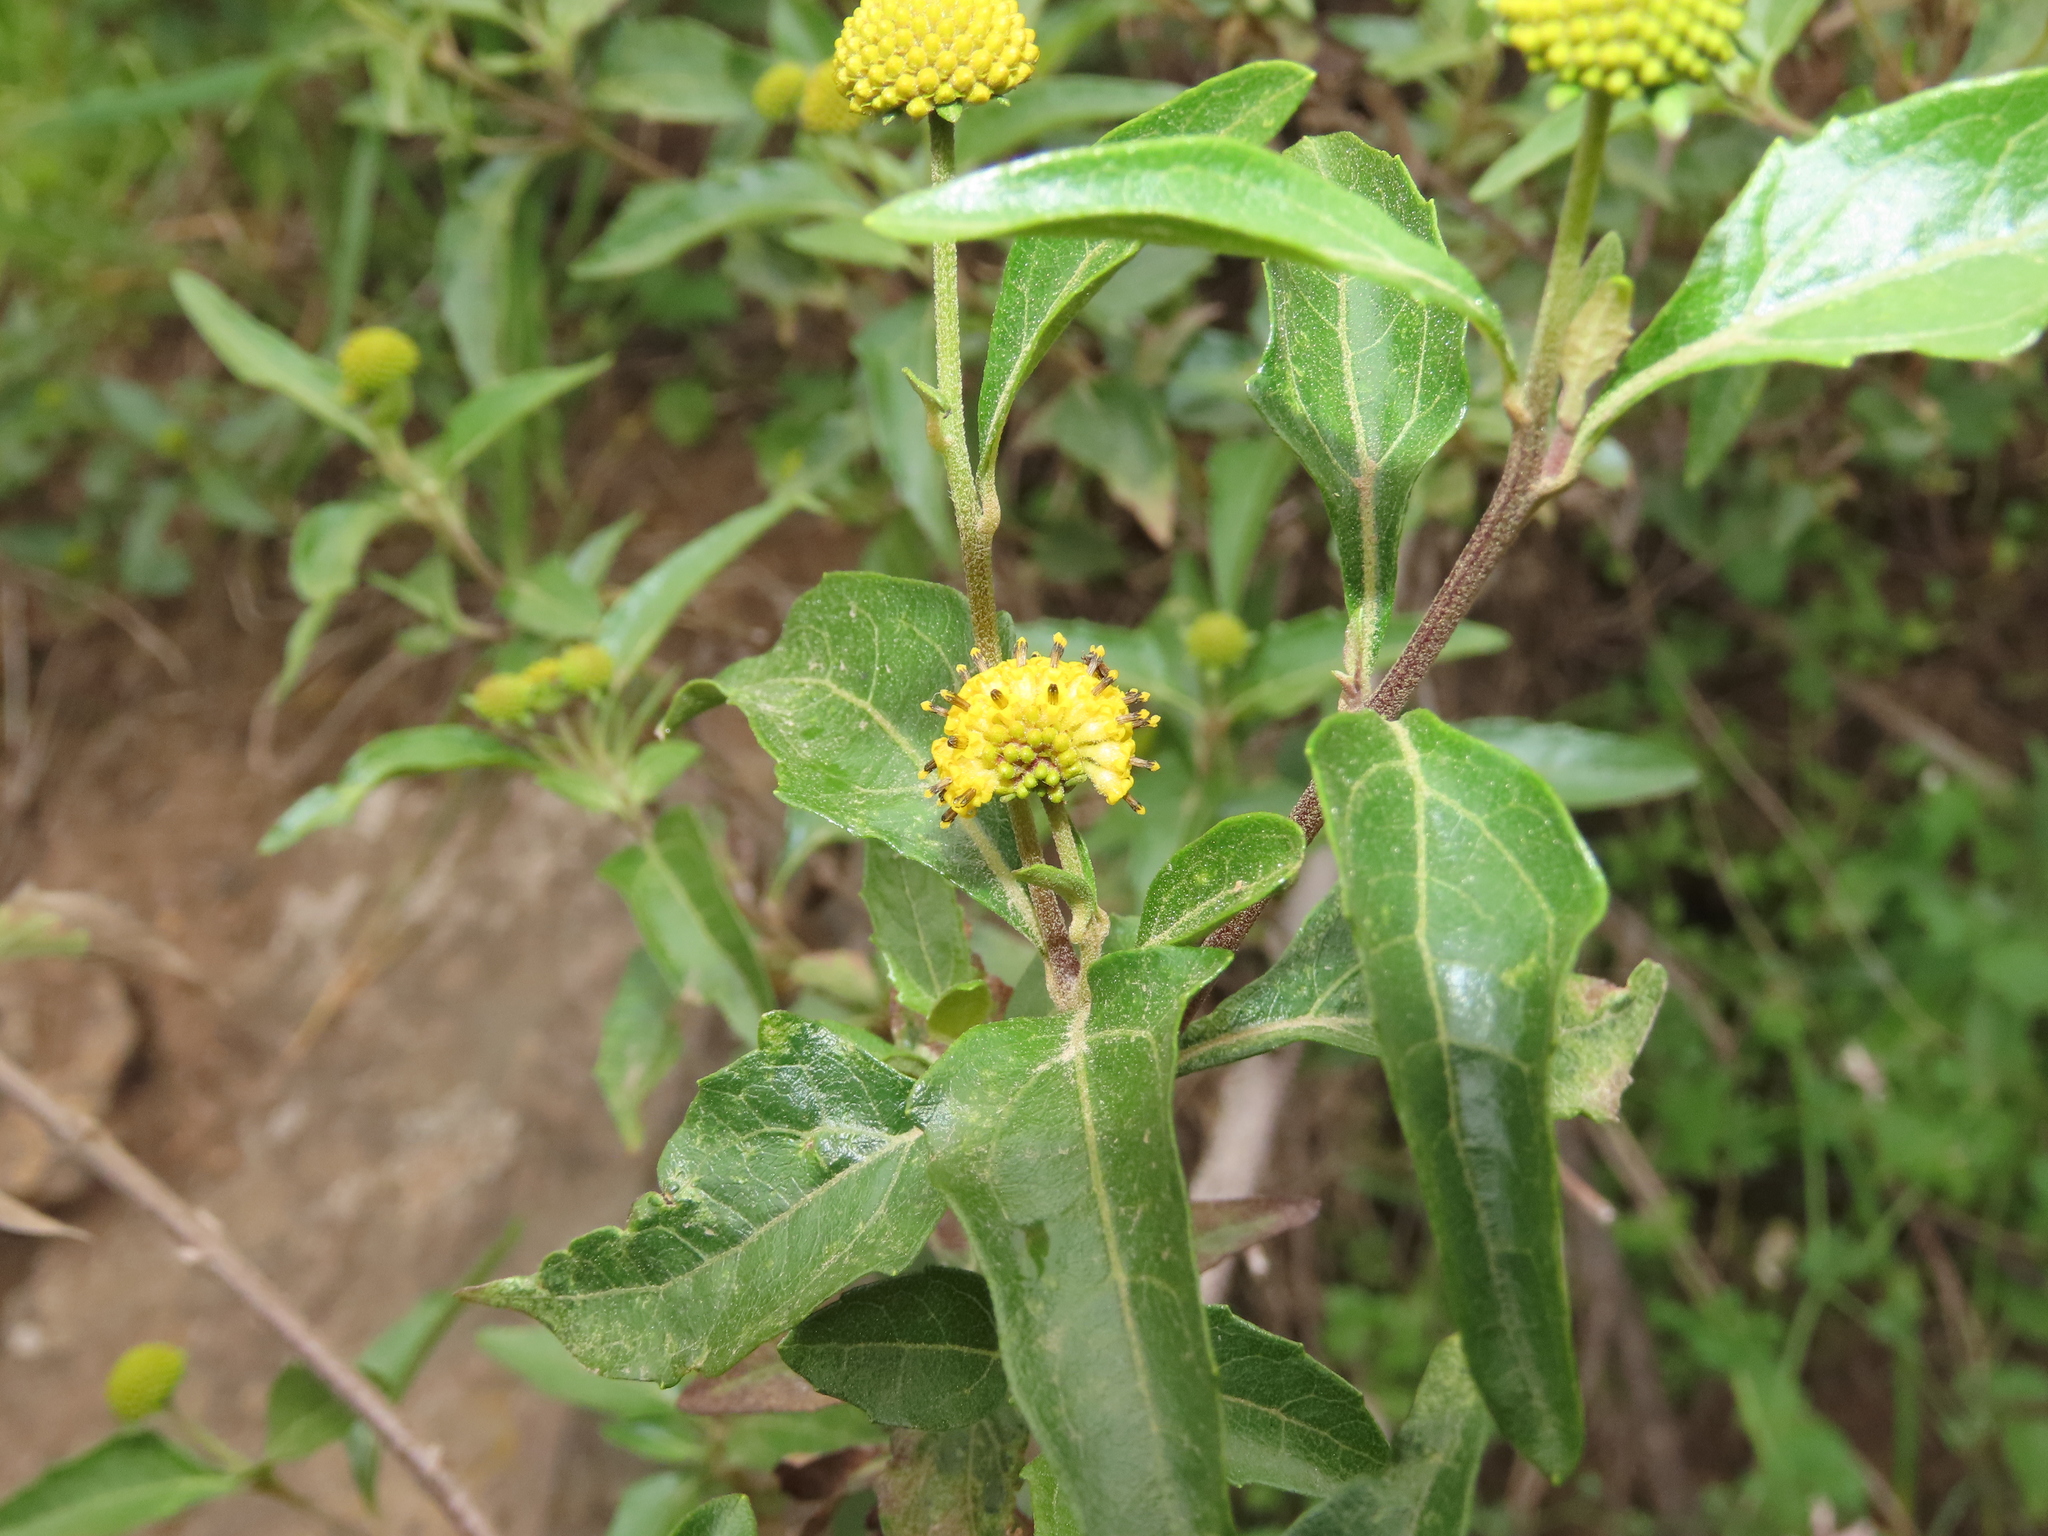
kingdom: Plantae
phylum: Tracheophyta
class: Magnoliopsida
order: Asterales
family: Asteraceae
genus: Podanthus
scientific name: Podanthus mitiqui
